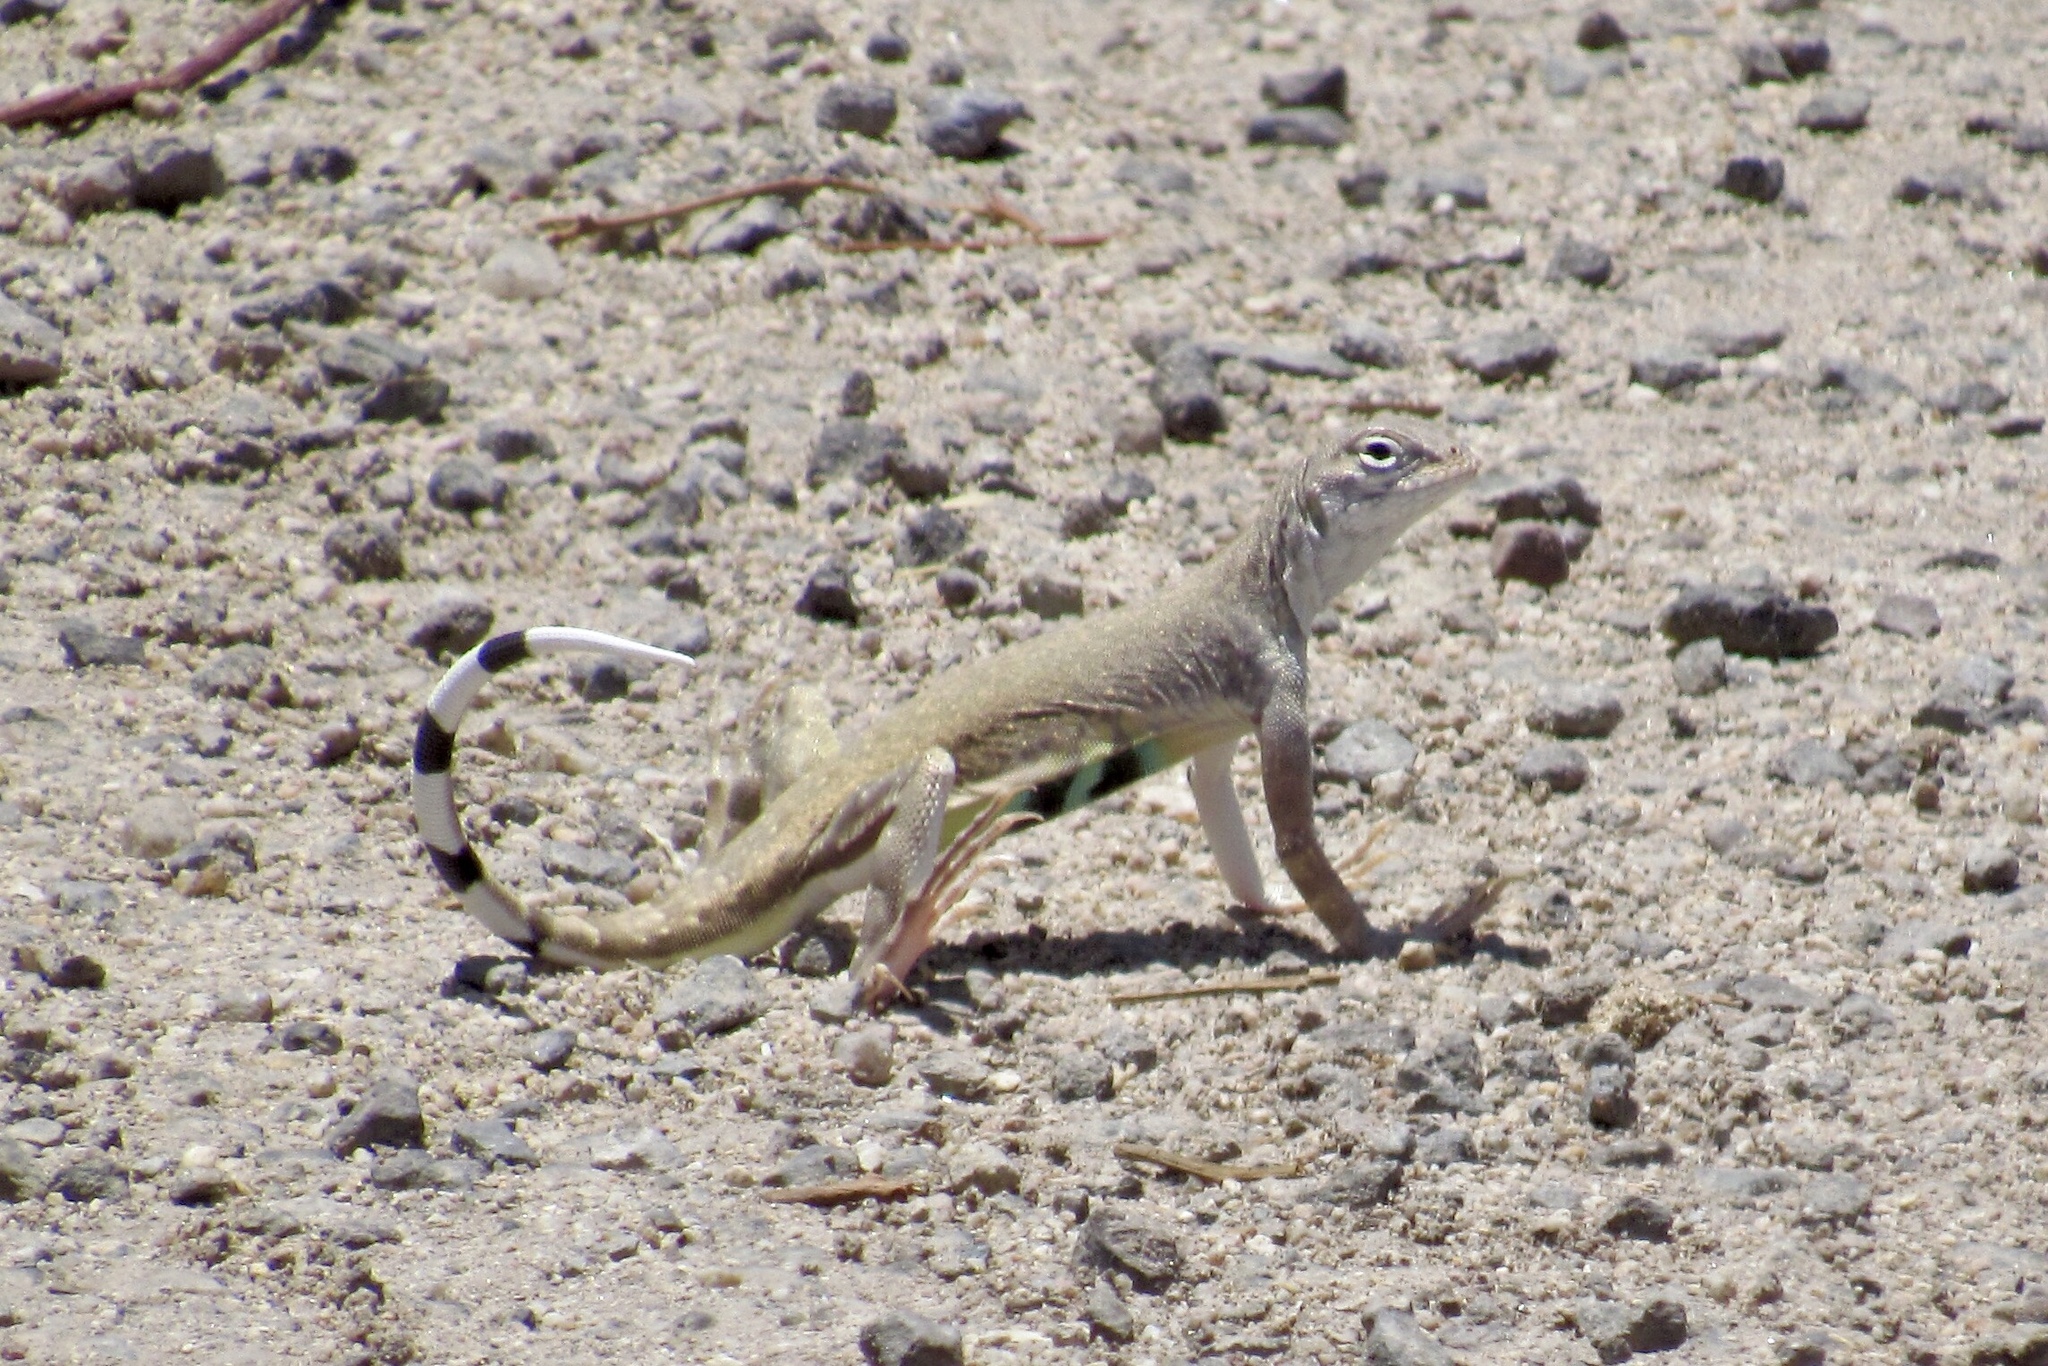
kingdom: Animalia
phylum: Chordata
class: Squamata
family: Phrynosomatidae
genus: Callisaurus
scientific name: Callisaurus draconoides
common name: Zebra-tailed lizard
